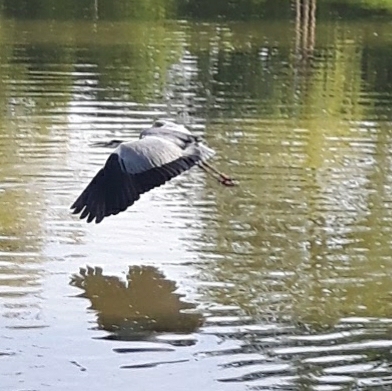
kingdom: Animalia
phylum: Chordata
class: Aves
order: Pelecaniformes
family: Ardeidae
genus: Ardea
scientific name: Ardea cinerea
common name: Grey heron
